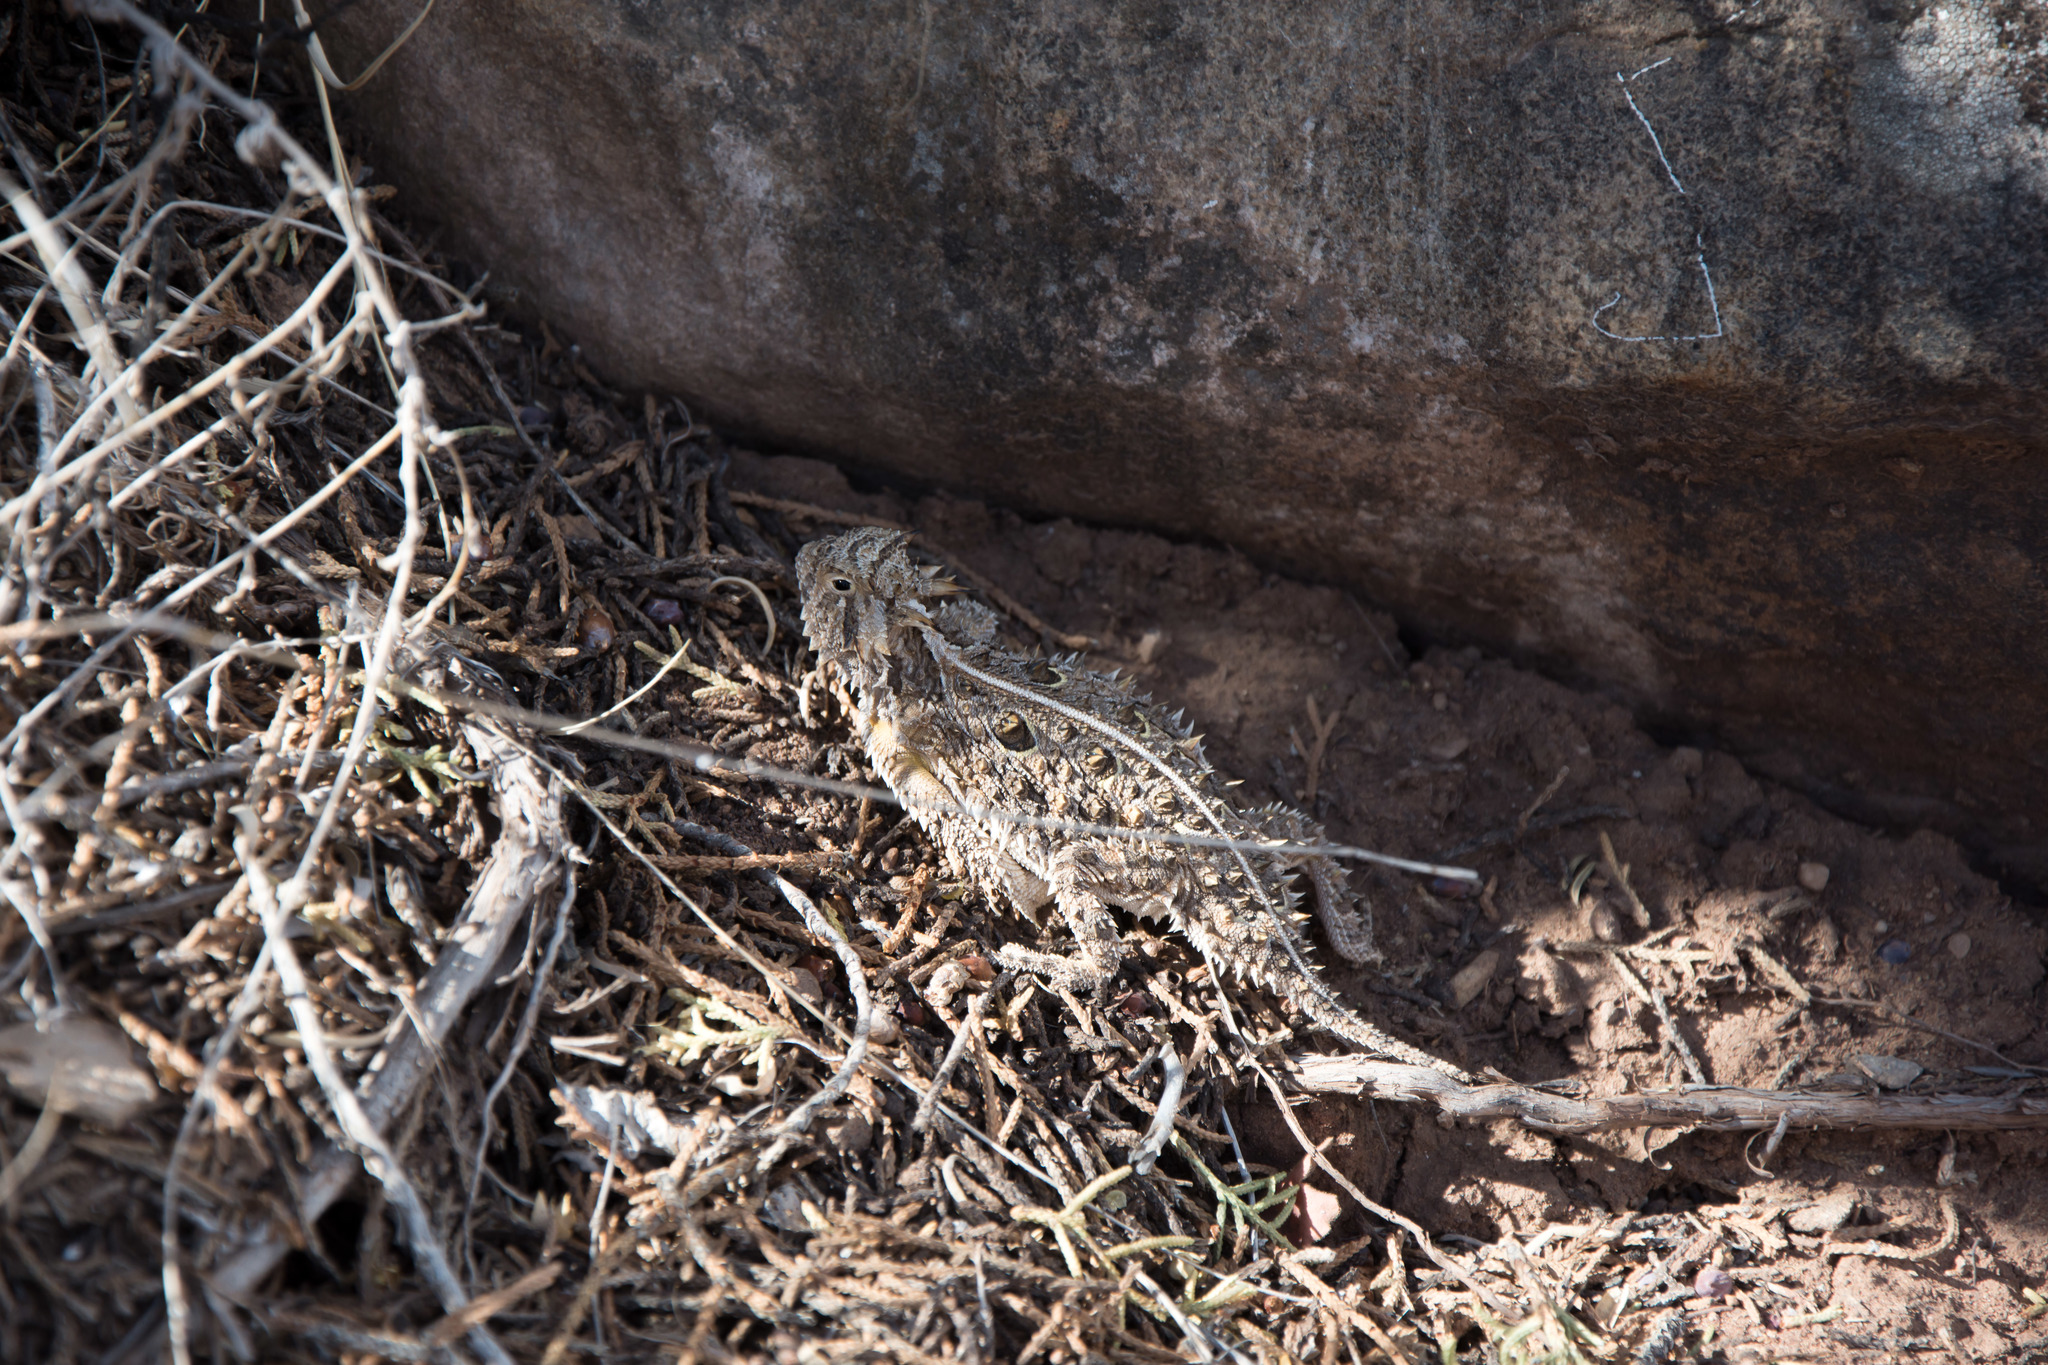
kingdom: Animalia
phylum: Chordata
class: Squamata
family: Phrynosomatidae
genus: Phrynosoma
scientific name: Phrynosoma cornutum
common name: Texas horned lizard
